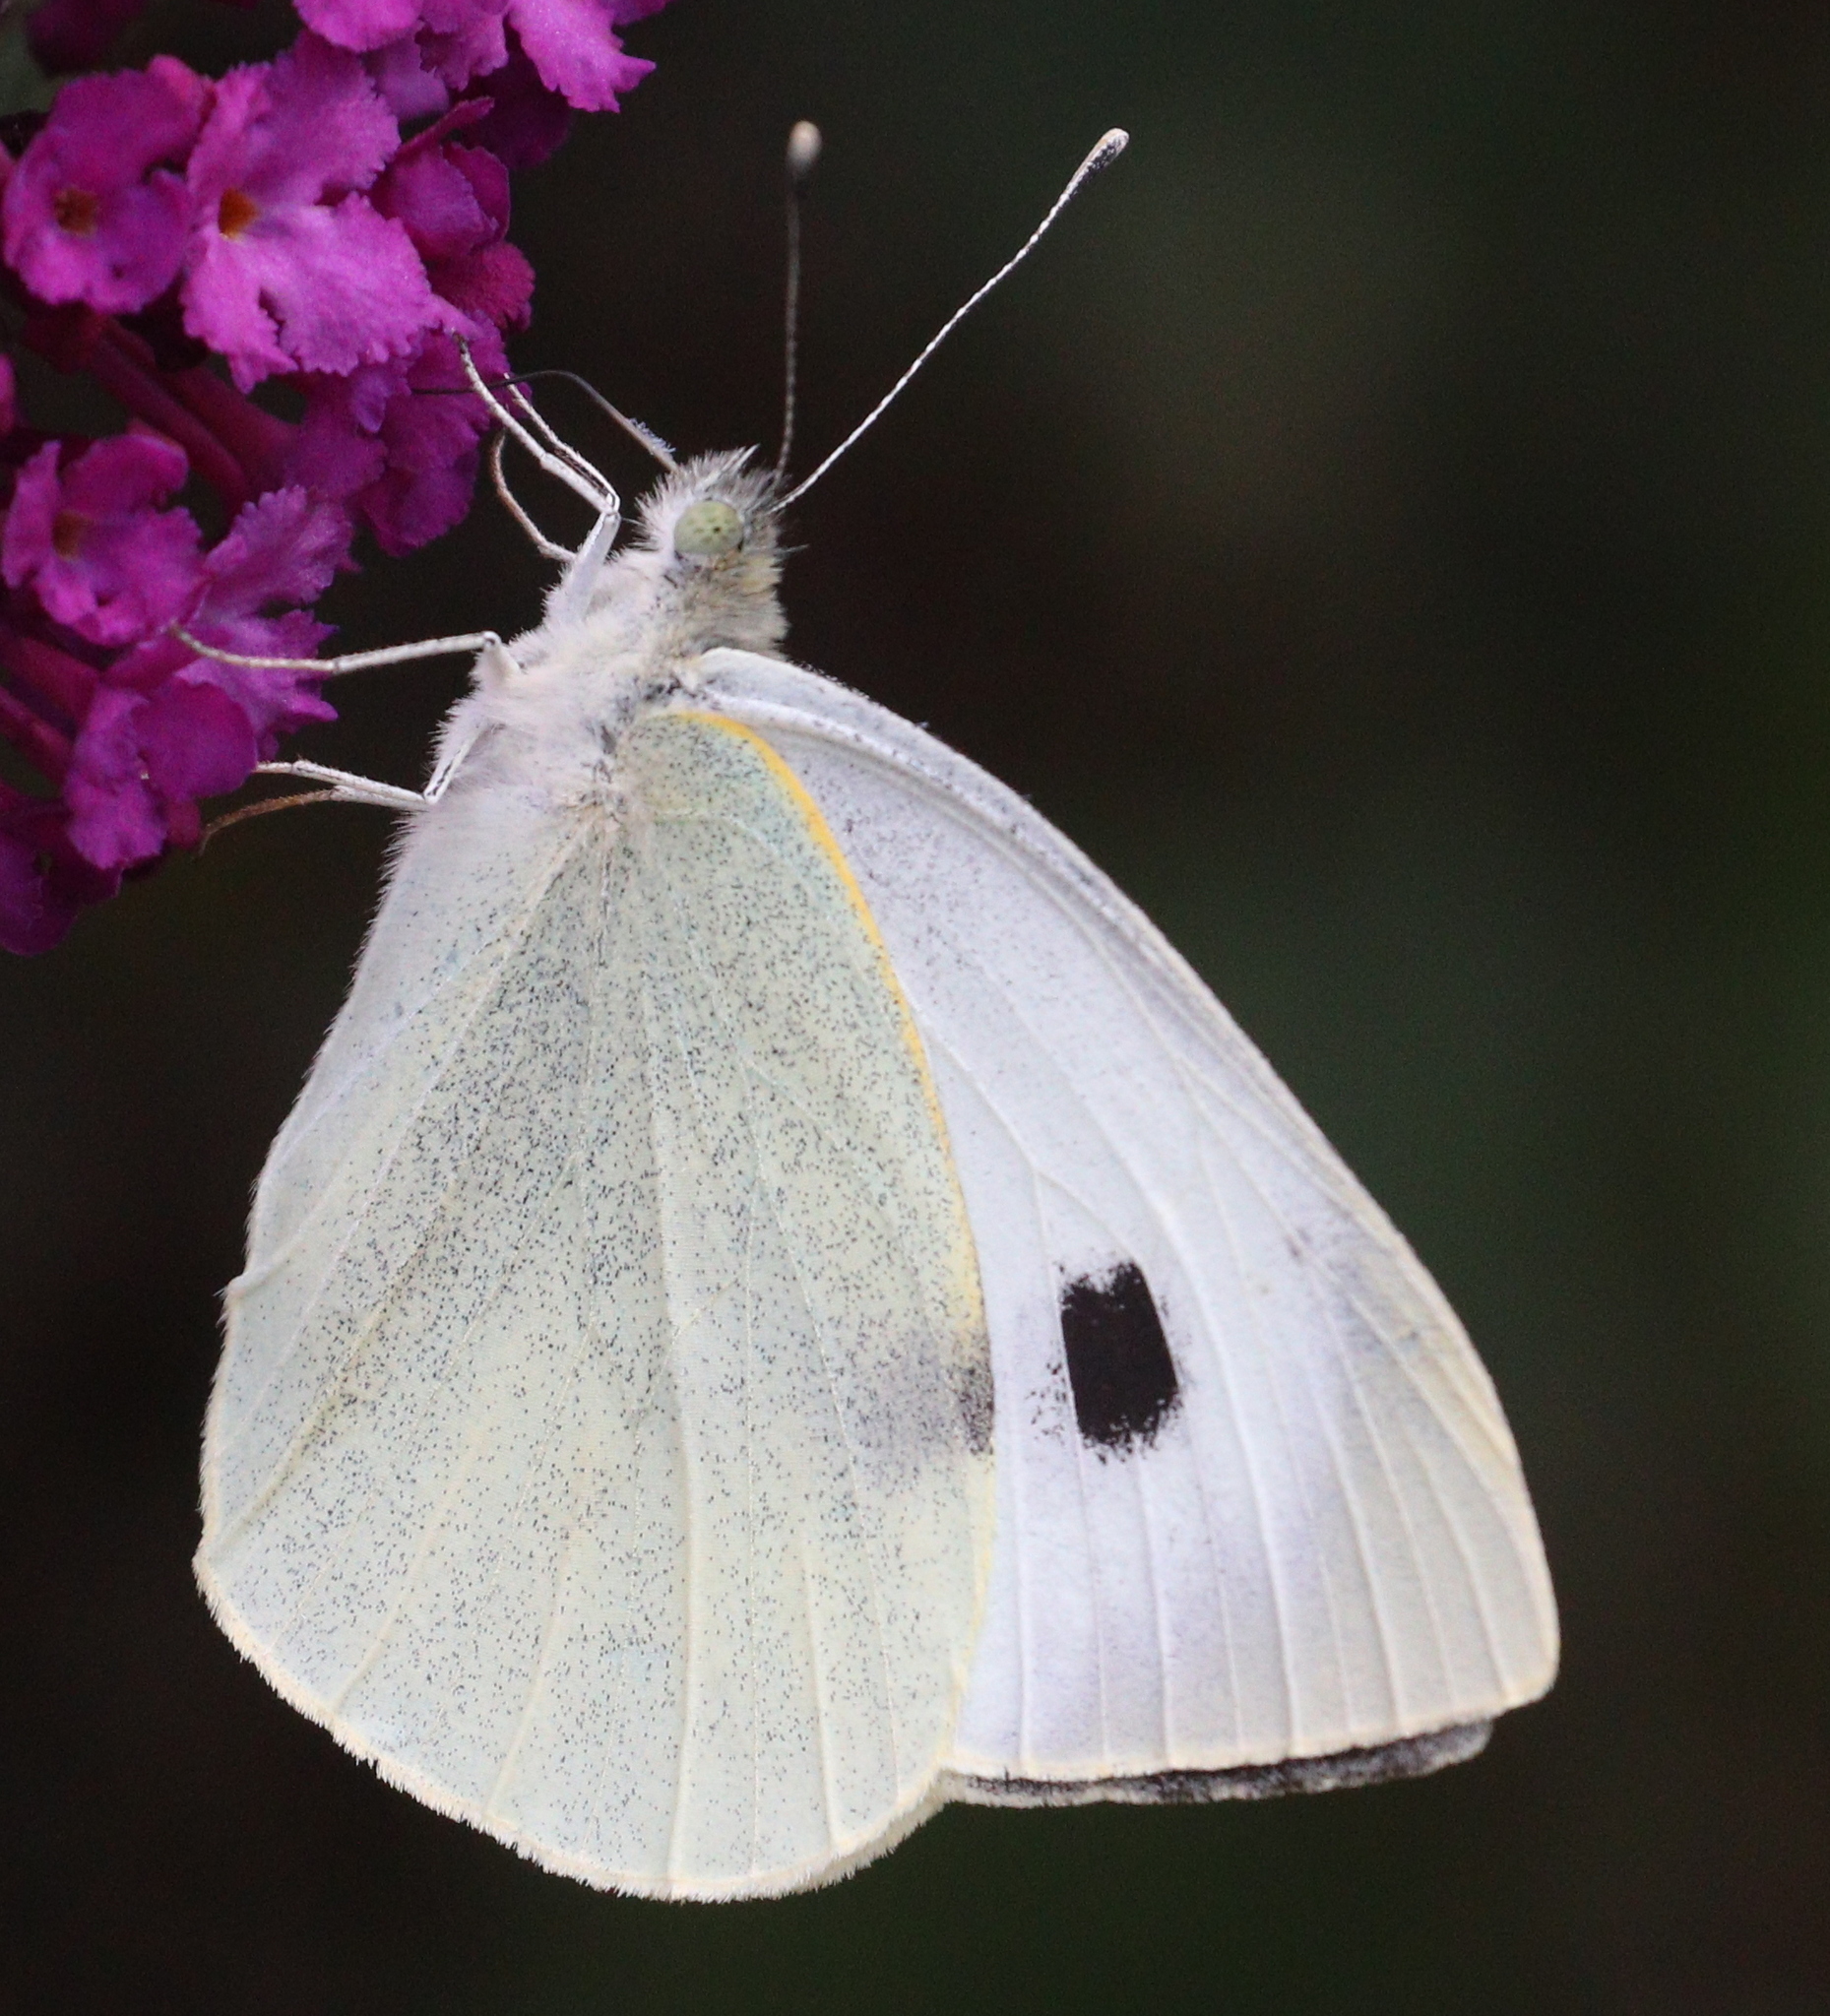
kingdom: Animalia
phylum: Arthropoda
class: Insecta
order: Lepidoptera
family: Pieridae
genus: Pieris
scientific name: Pieris brassicae
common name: Large white
